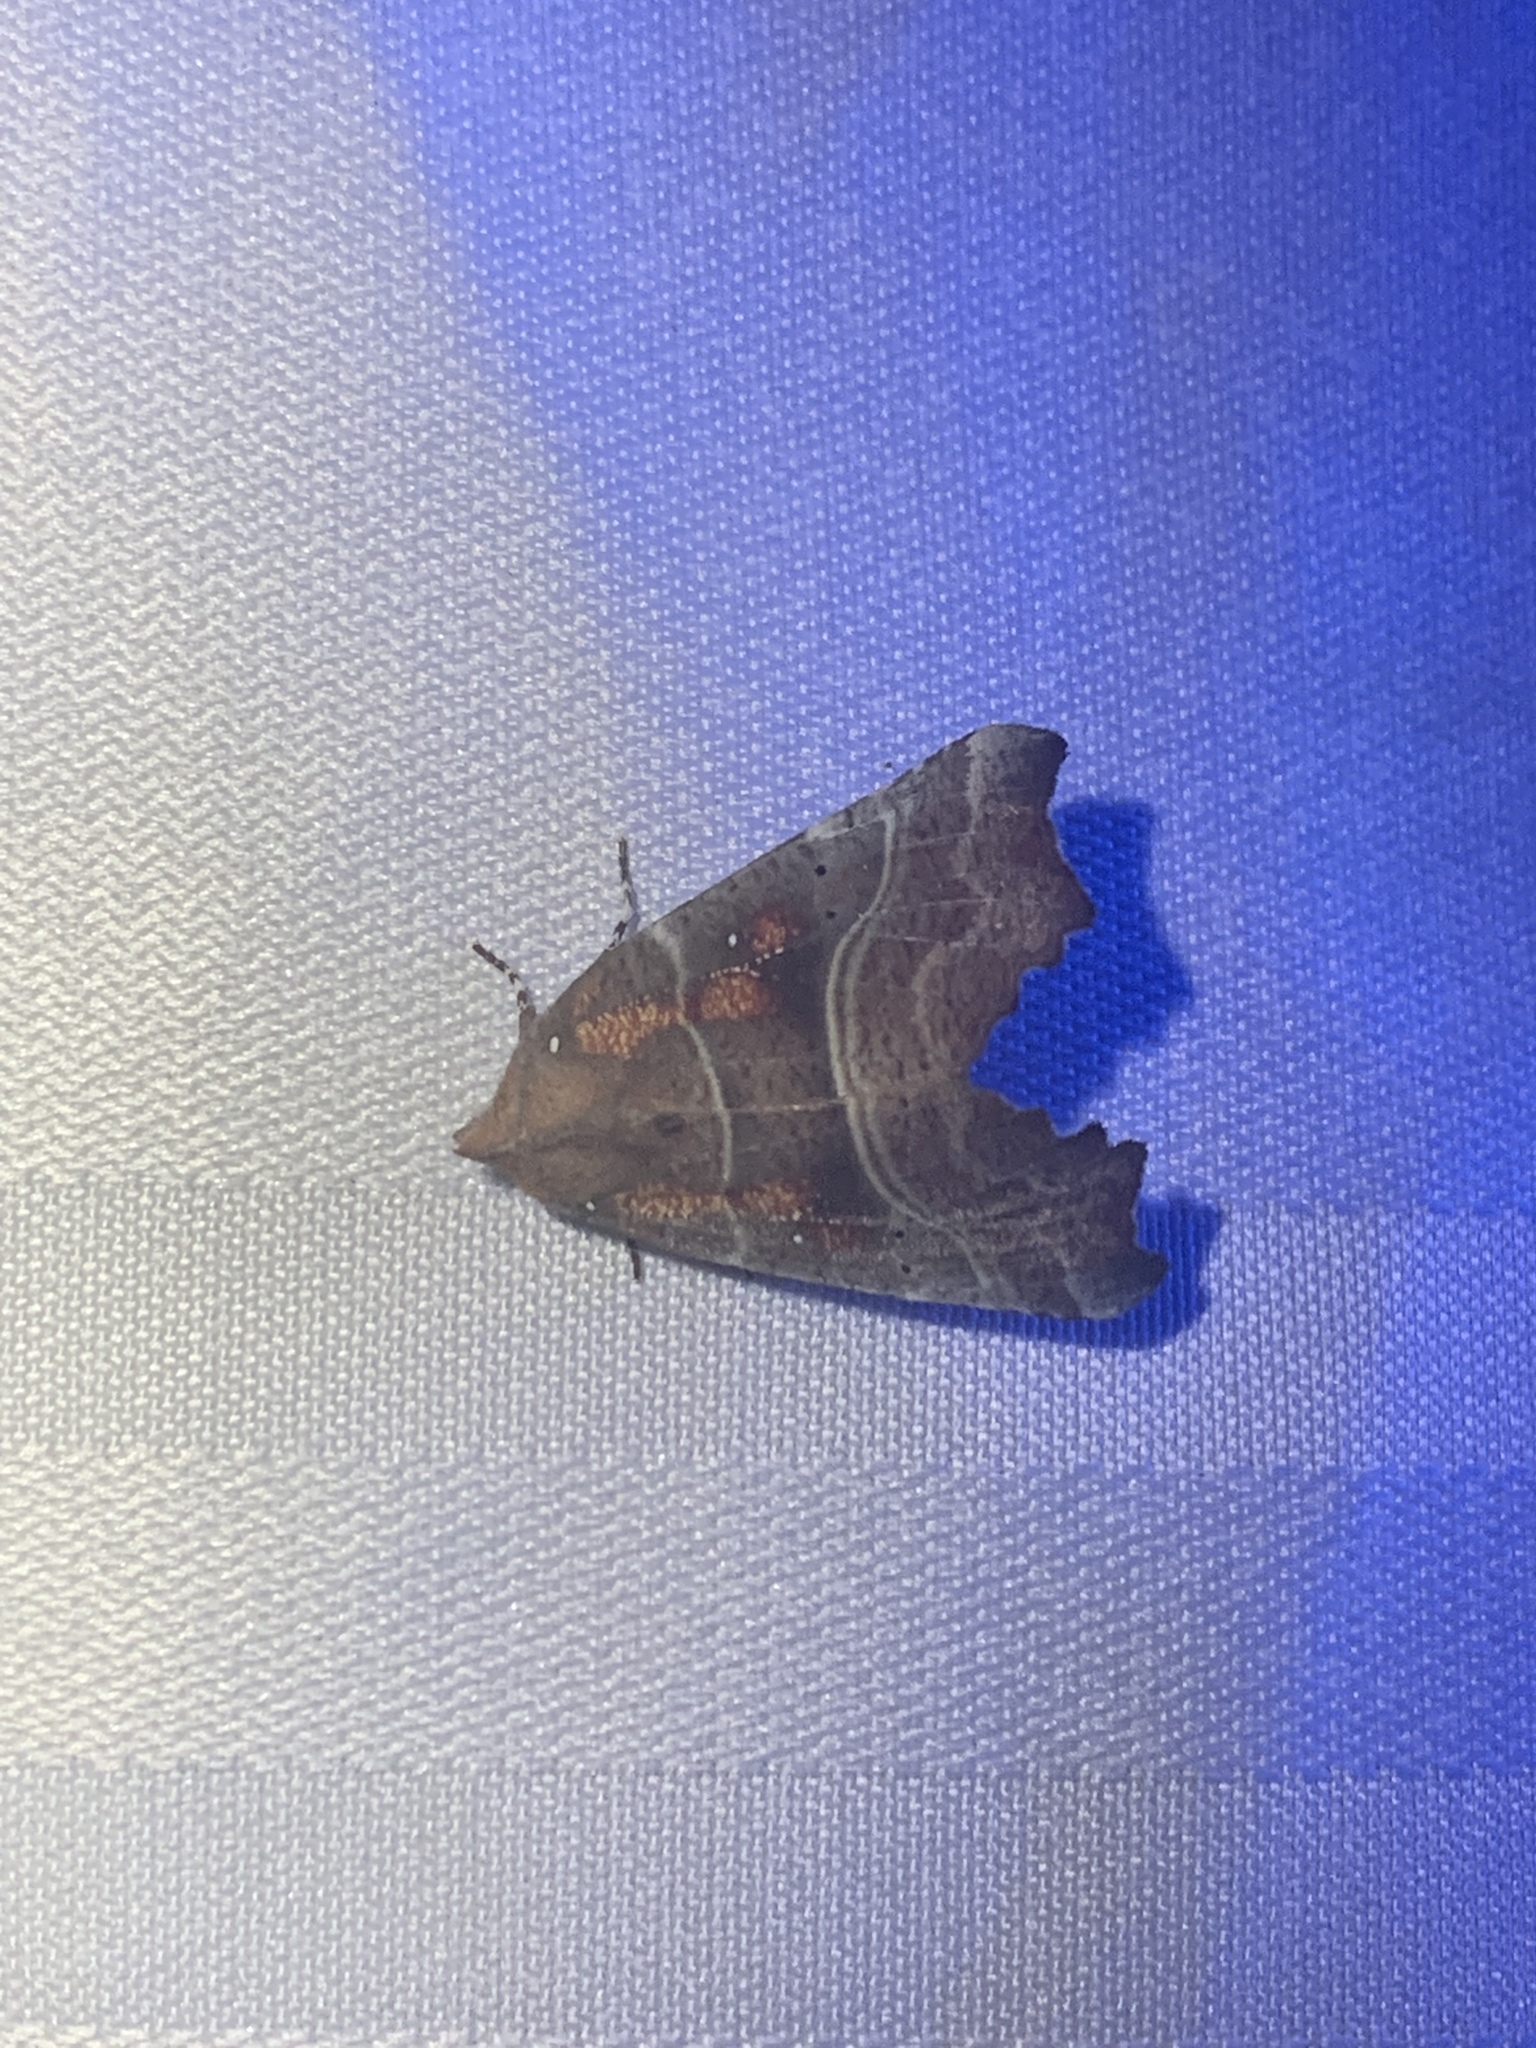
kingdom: Animalia
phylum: Arthropoda
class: Insecta
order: Lepidoptera
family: Erebidae
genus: Scoliopteryx
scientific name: Scoliopteryx libatrix
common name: Herald
